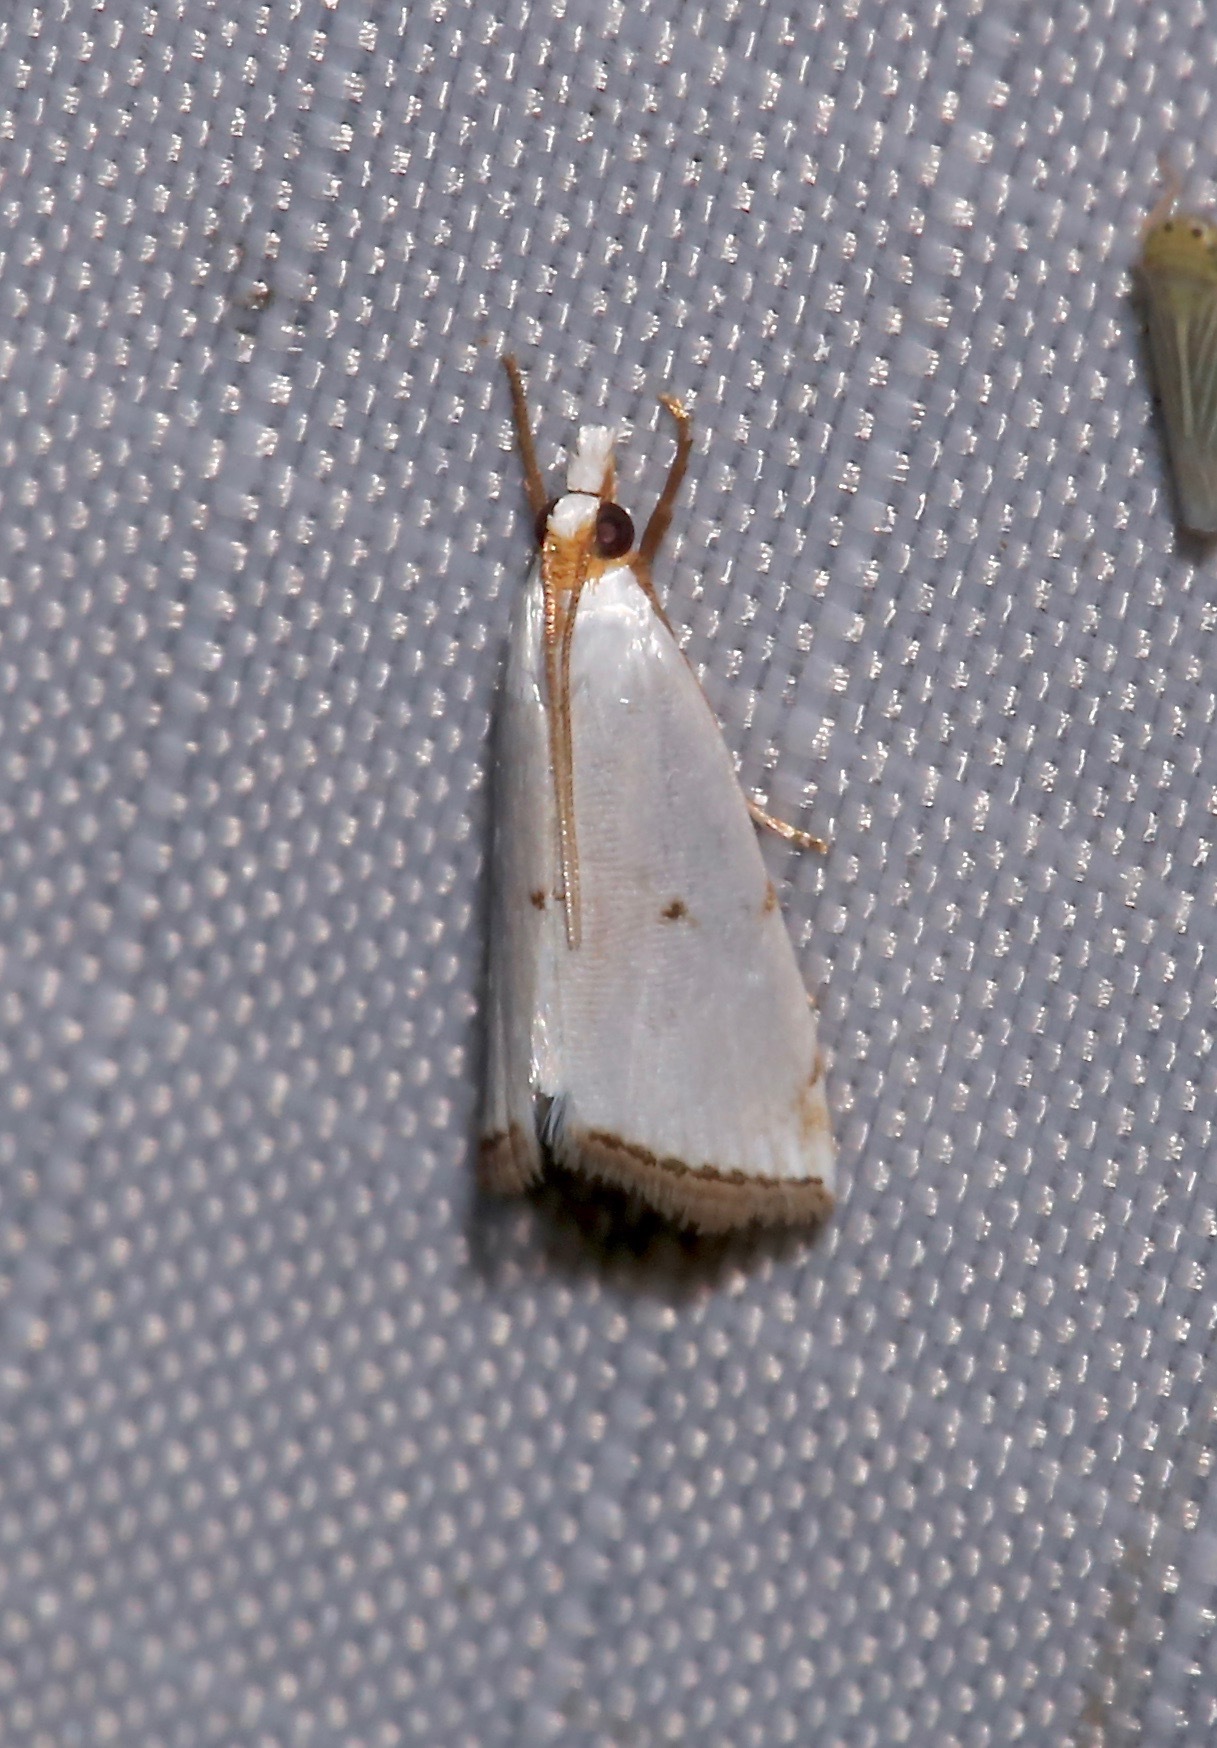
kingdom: Animalia
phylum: Arthropoda
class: Insecta
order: Lepidoptera
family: Crambidae
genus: Argyria
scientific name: Argyria pusillalis
